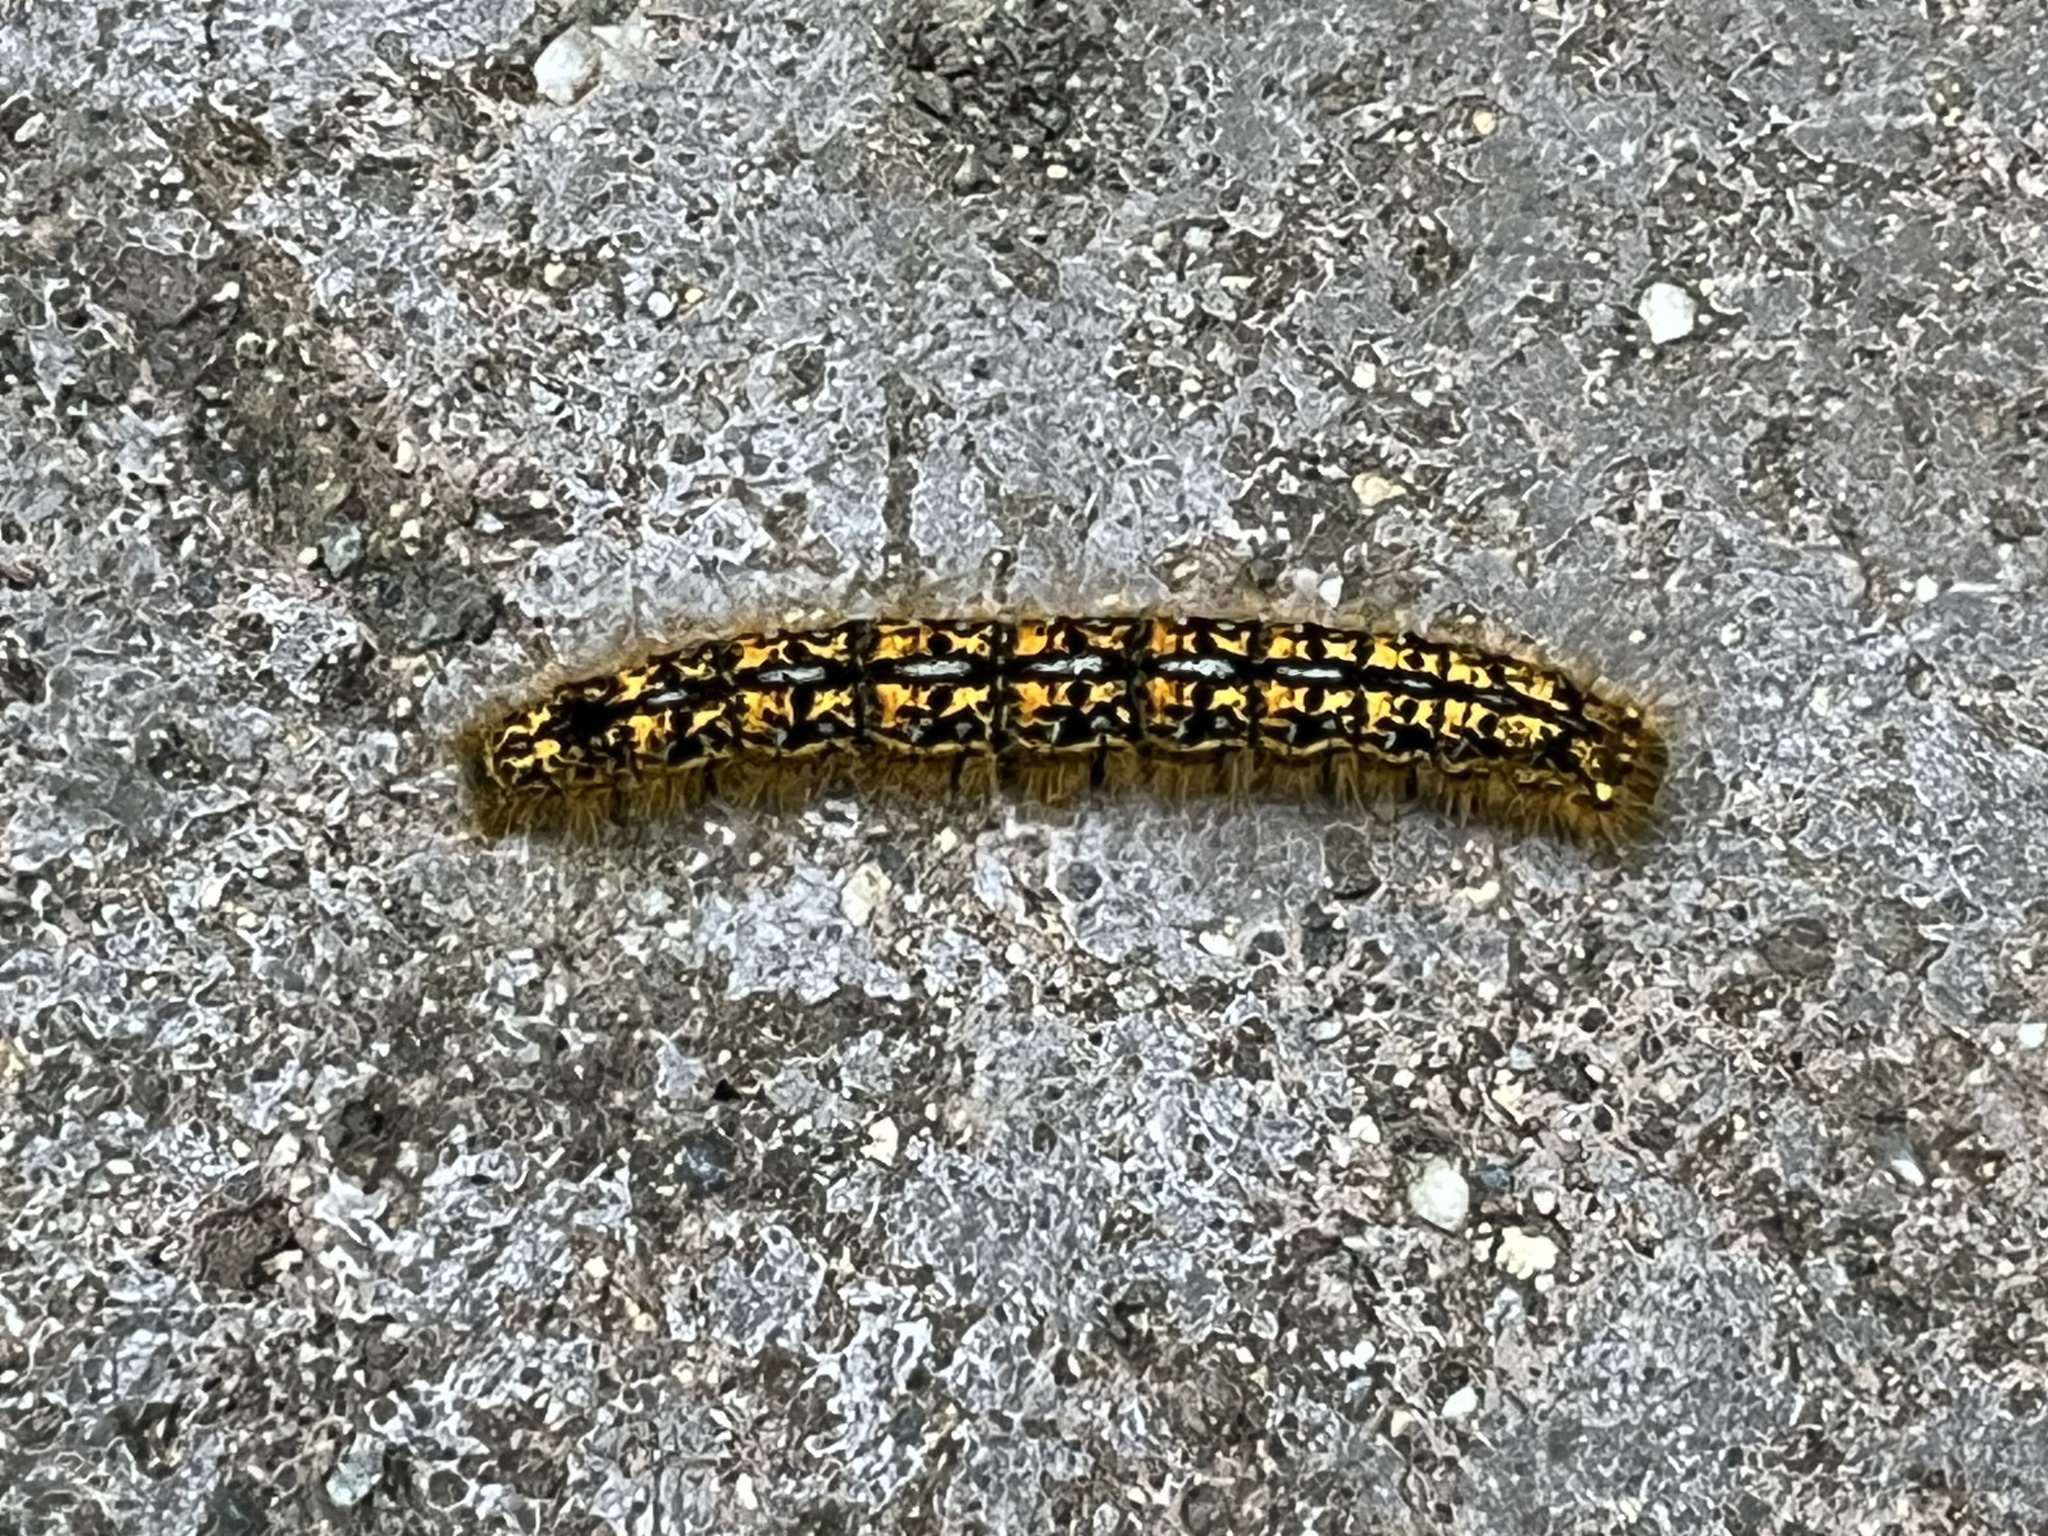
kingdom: Animalia
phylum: Arthropoda
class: Insecta
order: Lepidoptera
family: Lasiocampidae
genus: Malacosoma
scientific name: Malacosoma californica
